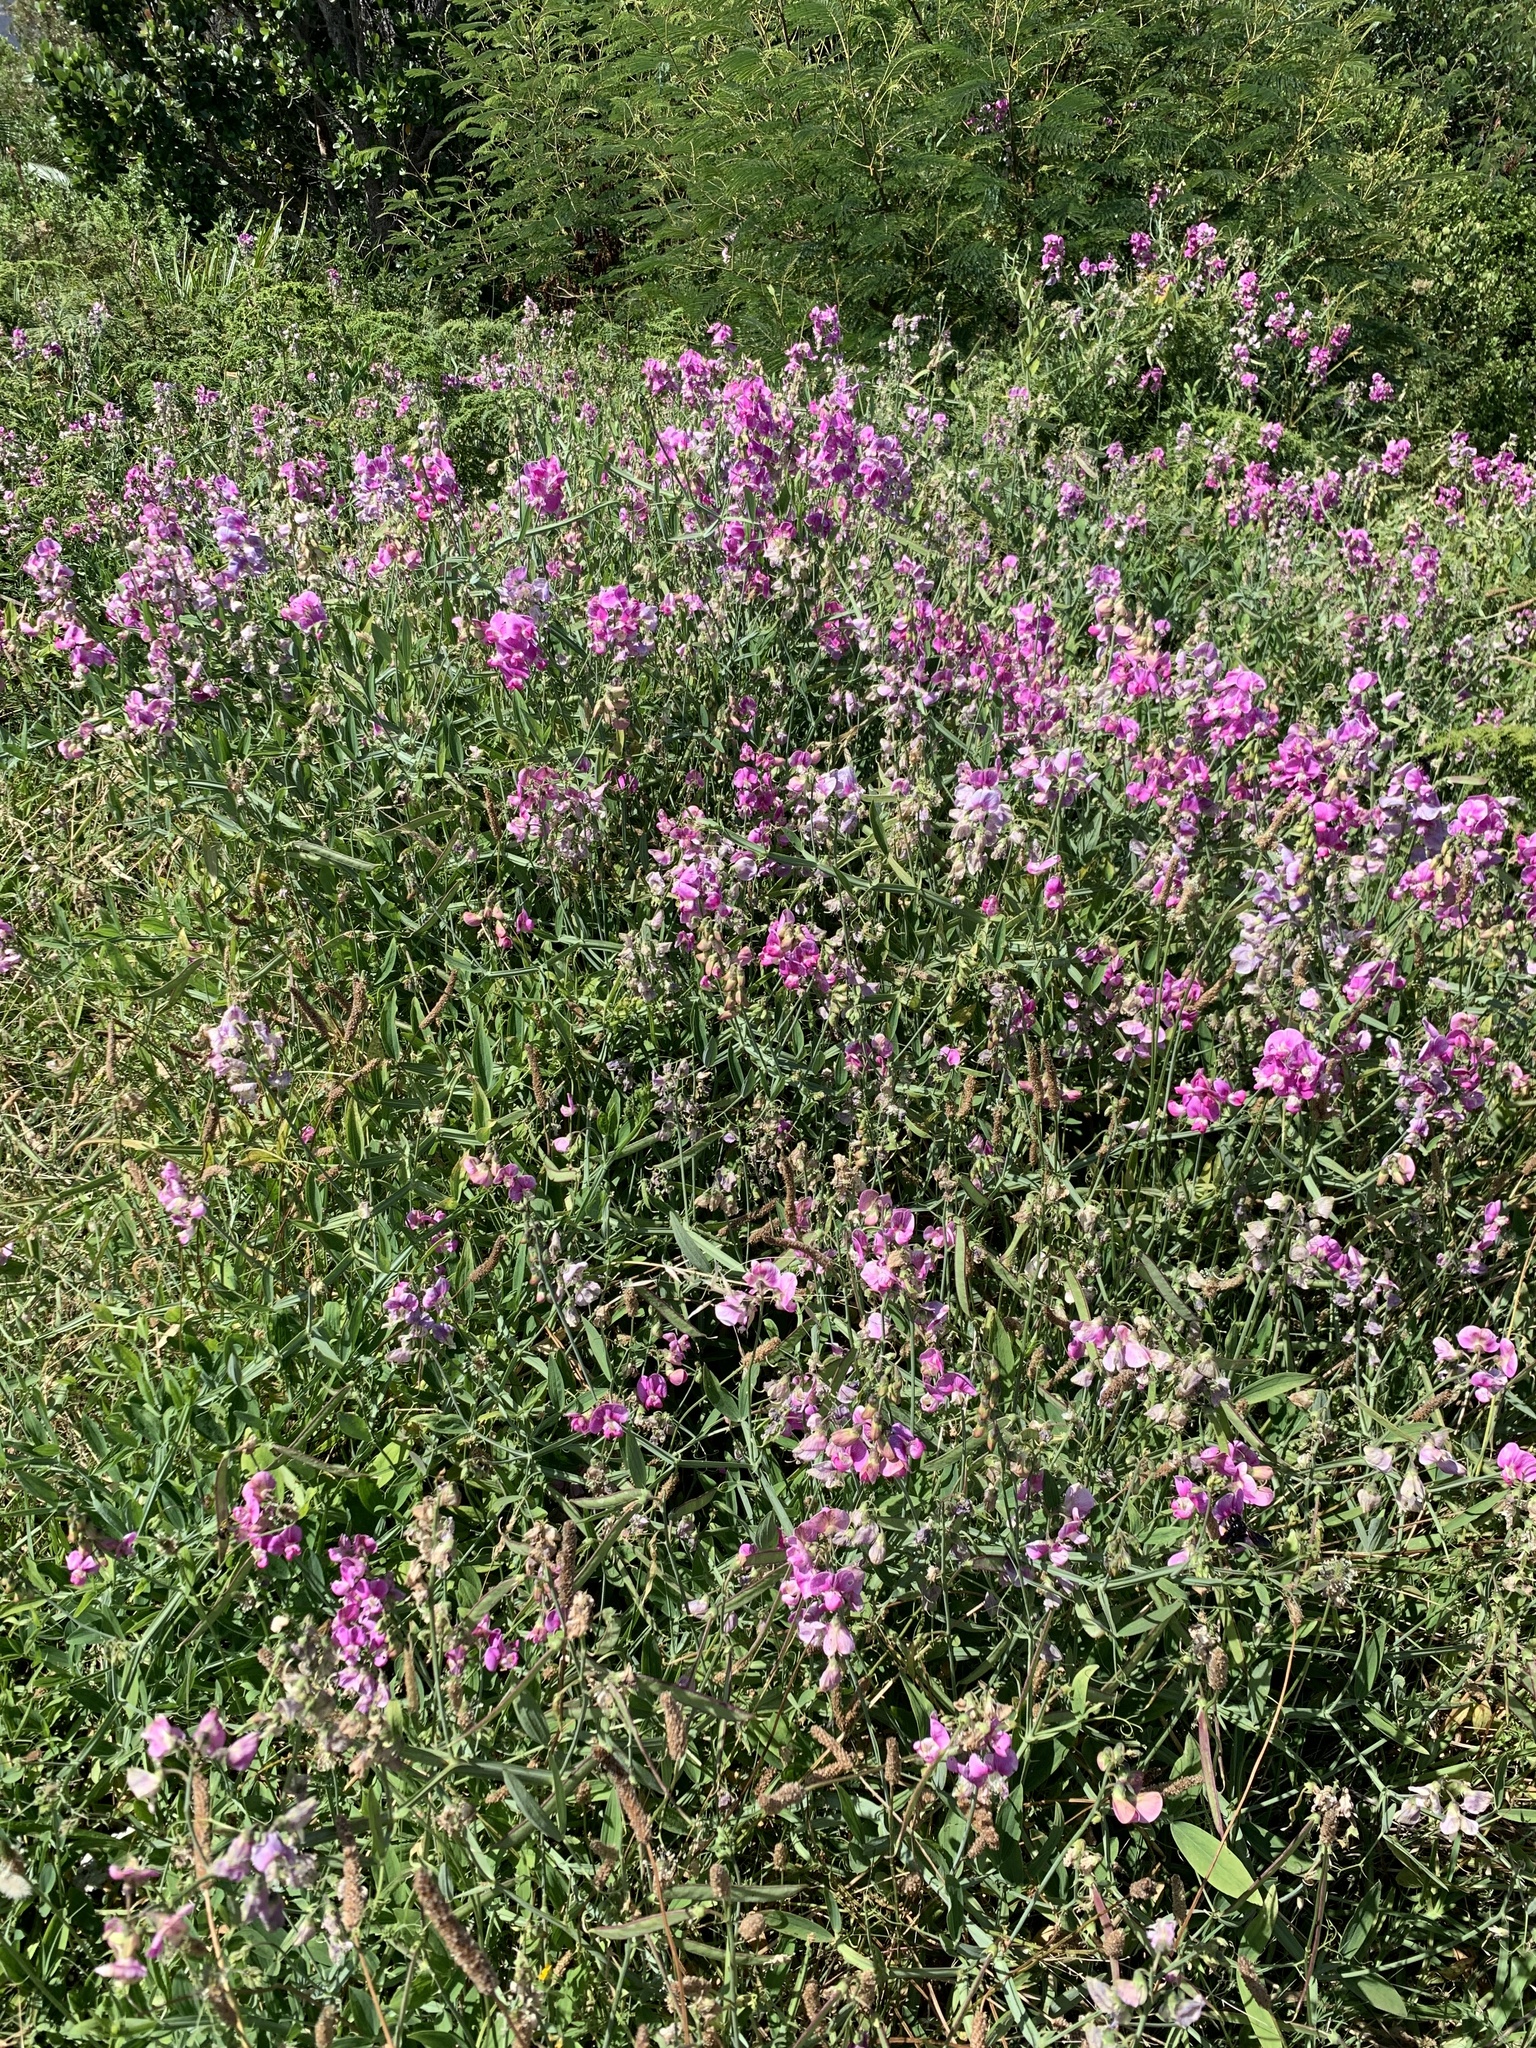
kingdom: Plantae
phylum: Tracheophyta
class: Magnoliopsida
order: Fabales
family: Fabaceae
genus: Lathyrus
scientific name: Lathyrus latifolius
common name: Perennial pea
